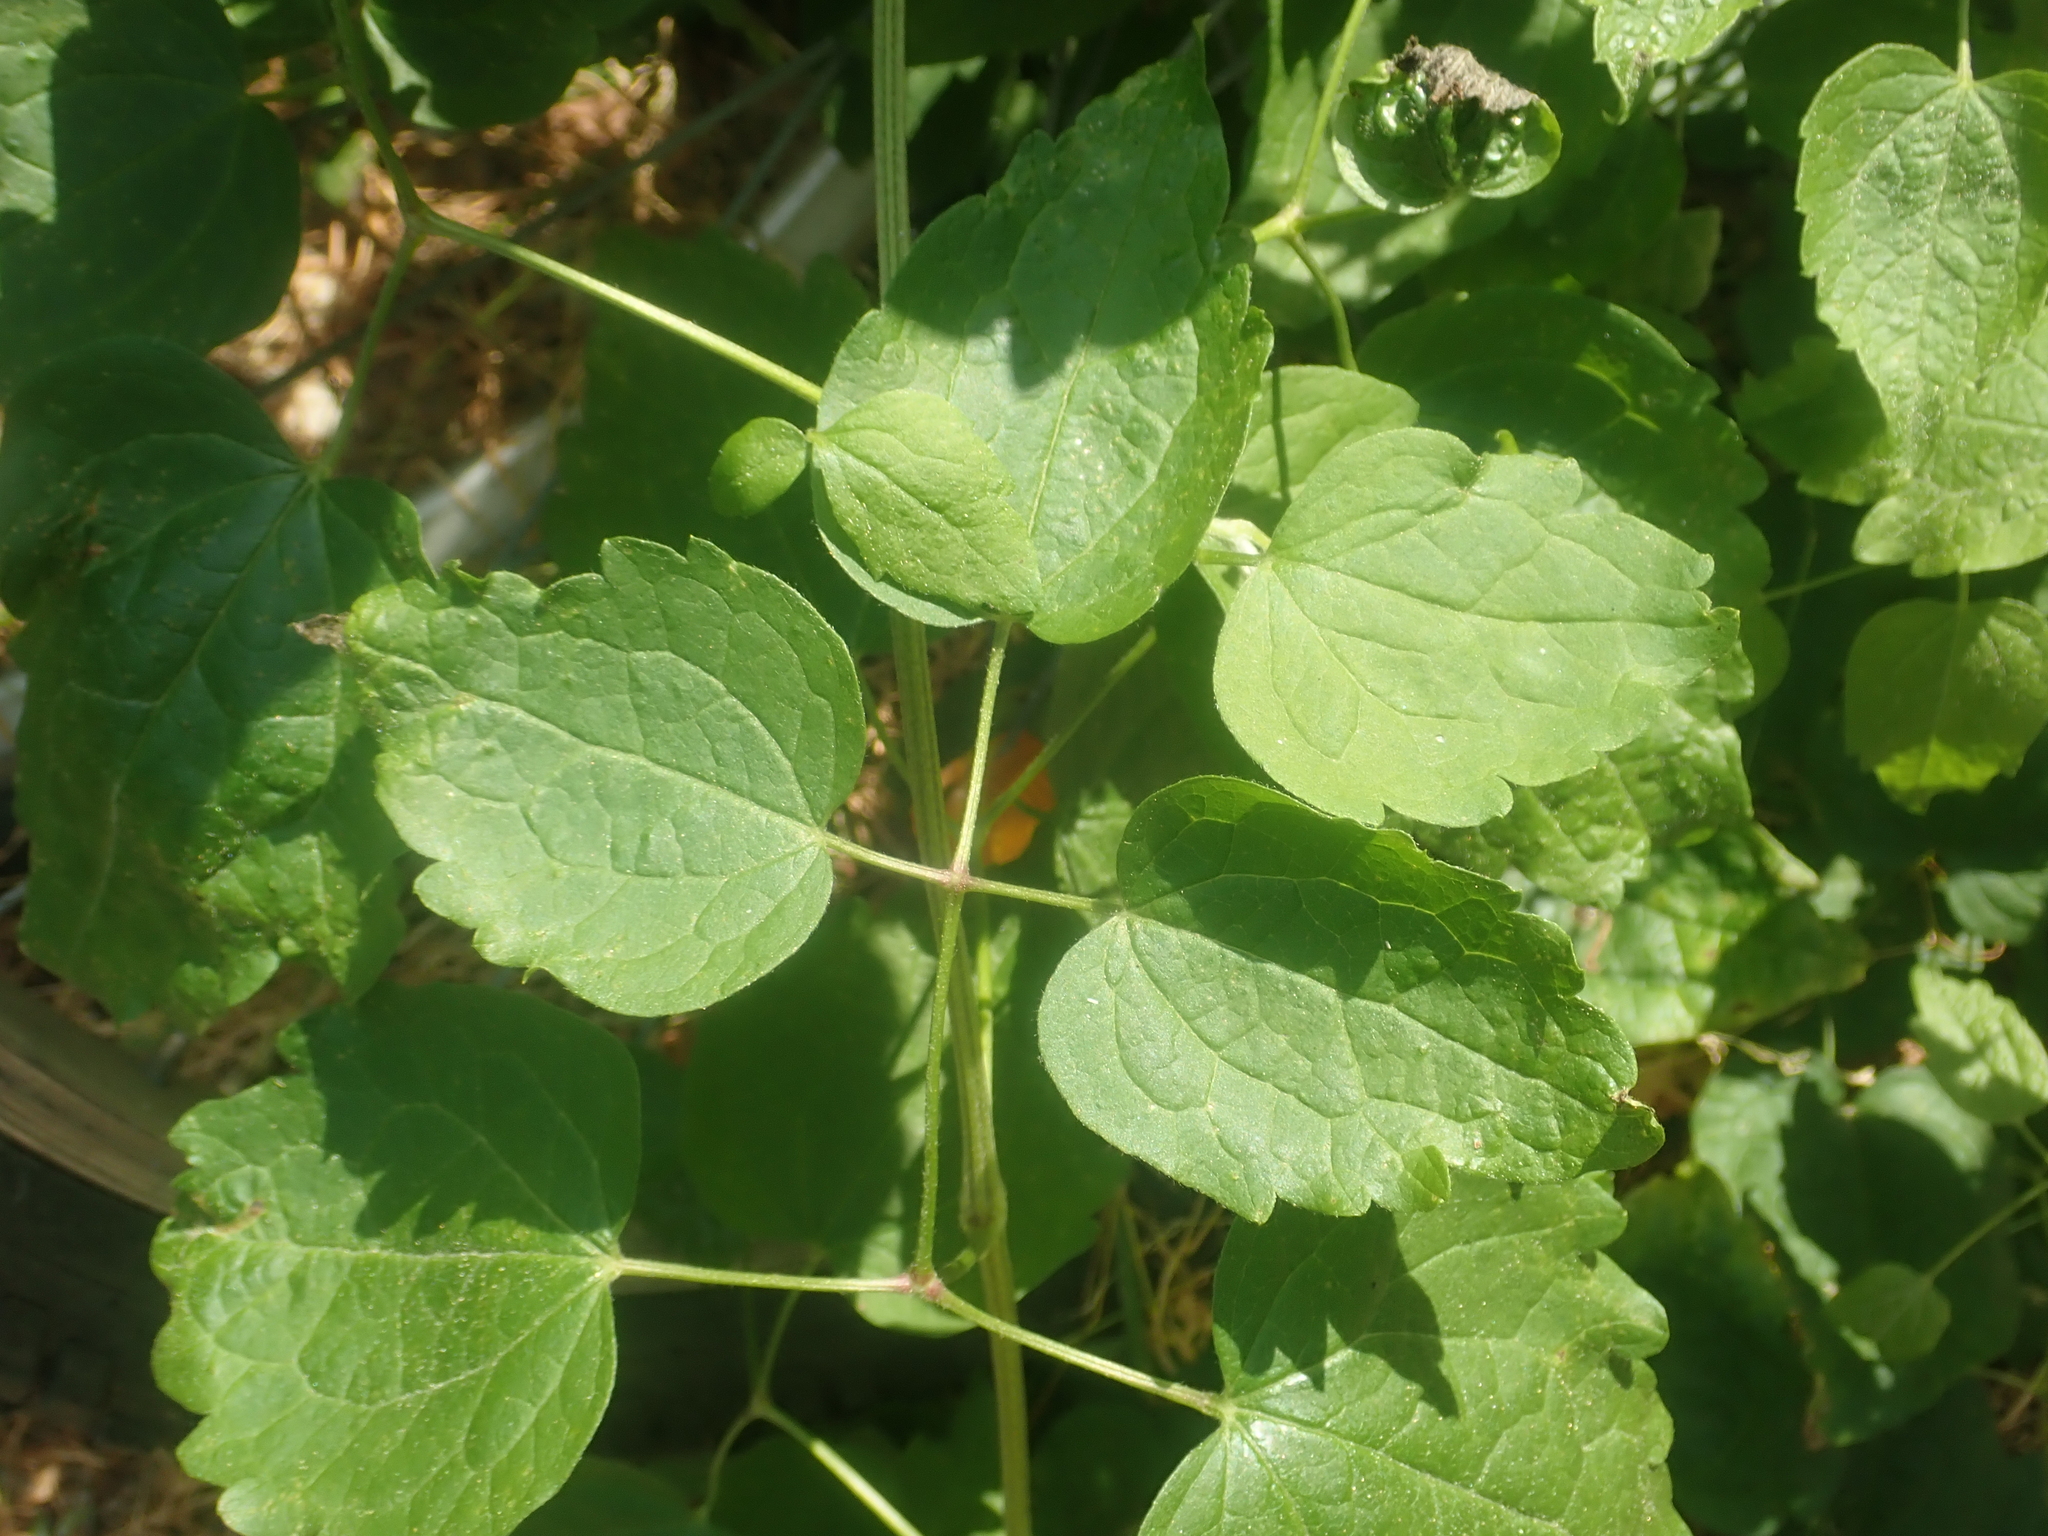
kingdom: Plantae
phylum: Tracheophyta
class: Magnoliopsida
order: Ranunculales
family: Ranunculaceae
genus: Clematis
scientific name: Clematis vitalba
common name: Evergreen clematis
